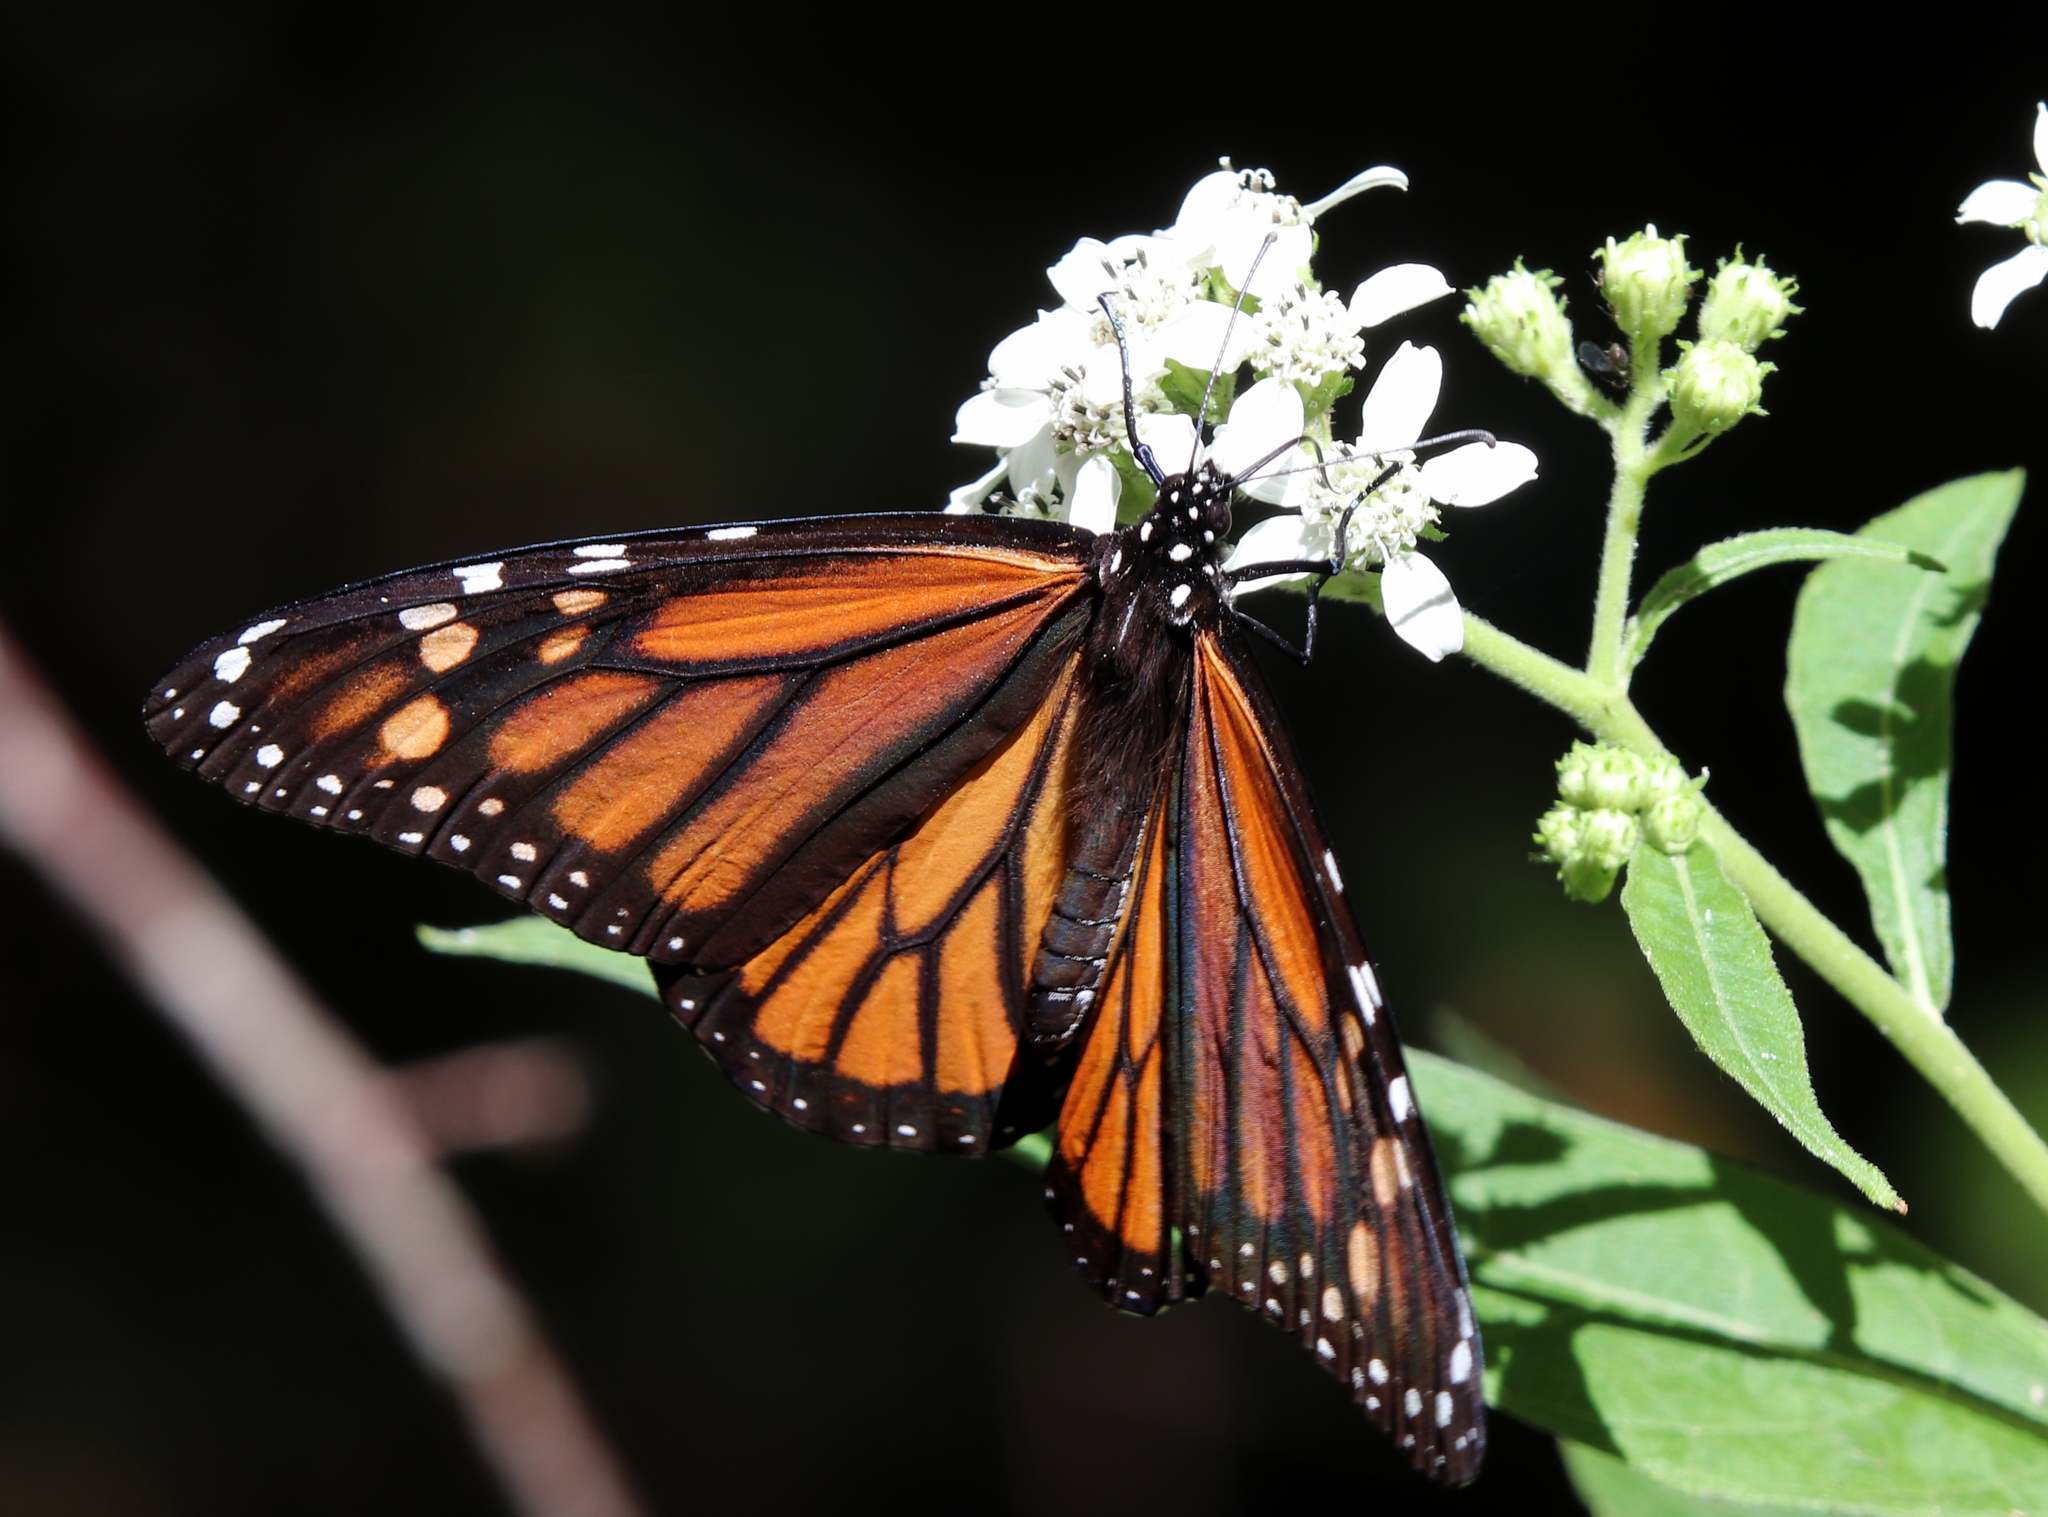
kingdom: Animalia
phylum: Arthropoda
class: Insecta
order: Lepidoptera
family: Nymphalidae
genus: Danaus
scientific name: Danaus plexippus
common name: Monarch
